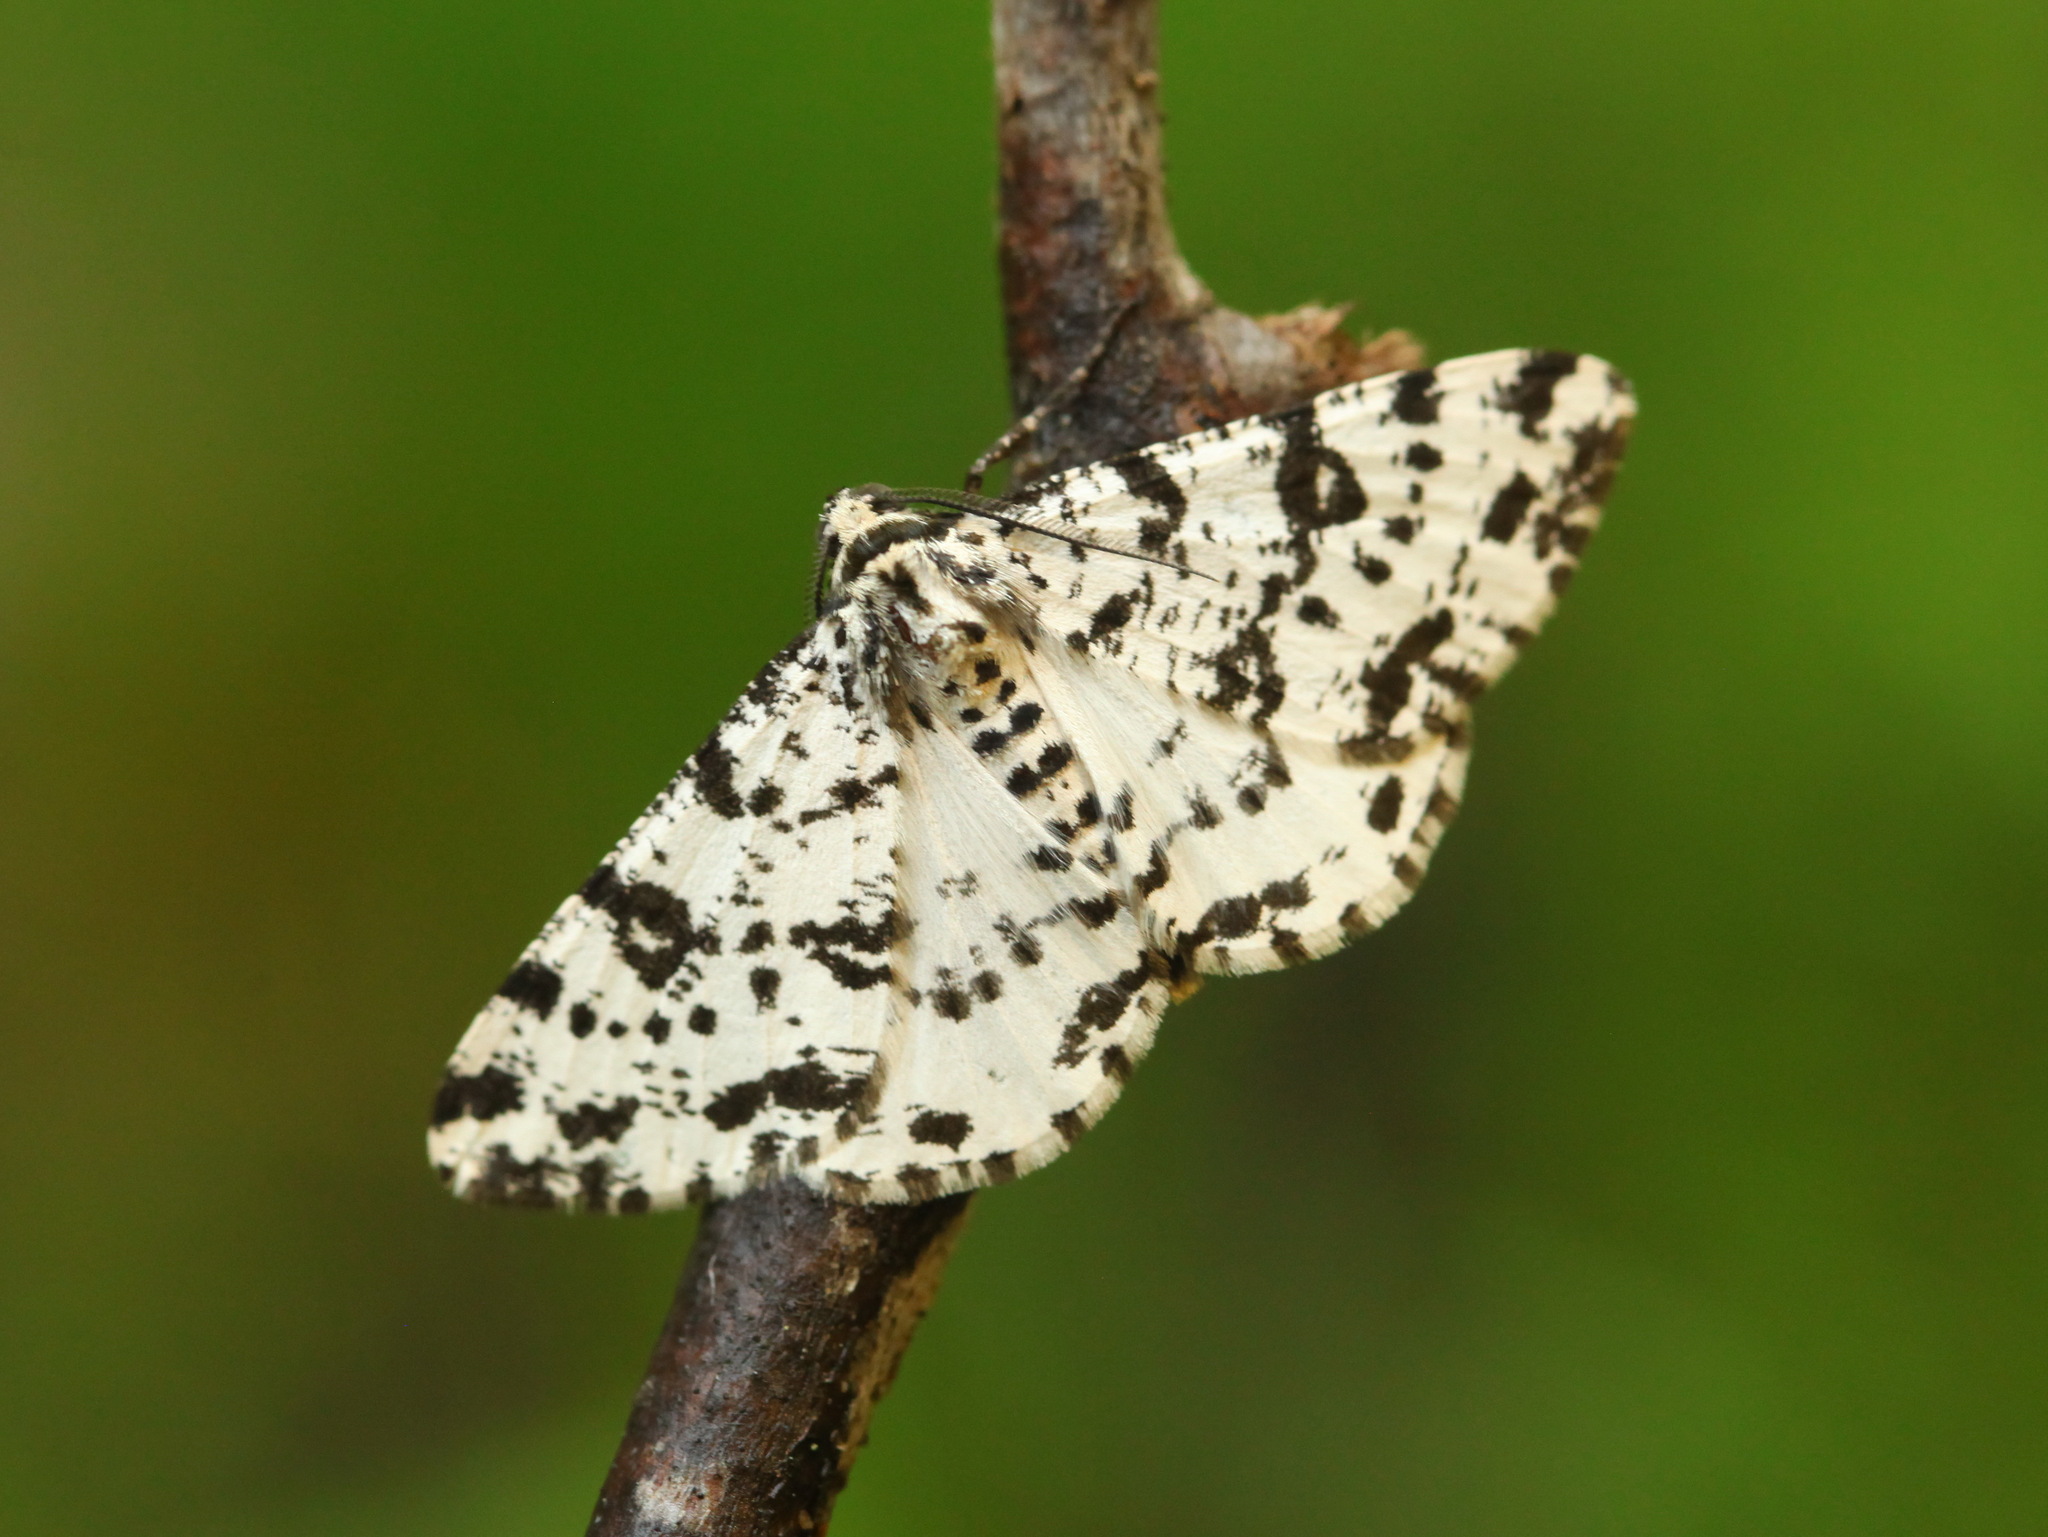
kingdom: Animalia
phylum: Arthropoda
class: Insecta
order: Lepidoptera
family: Geometridae
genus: Deileptenia
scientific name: Deileptenia mandshuriaria
